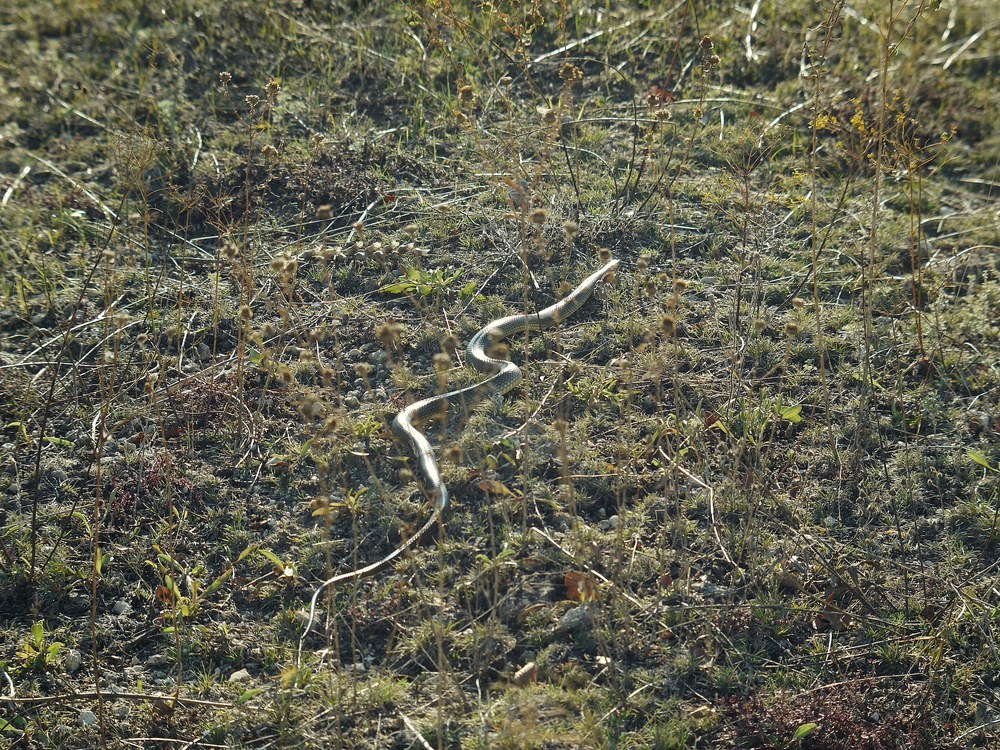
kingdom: Animalia
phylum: Chordata
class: Squamata
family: Colubridae
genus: Dolichophis
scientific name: Dolichophis caspius
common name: Large whip snake
